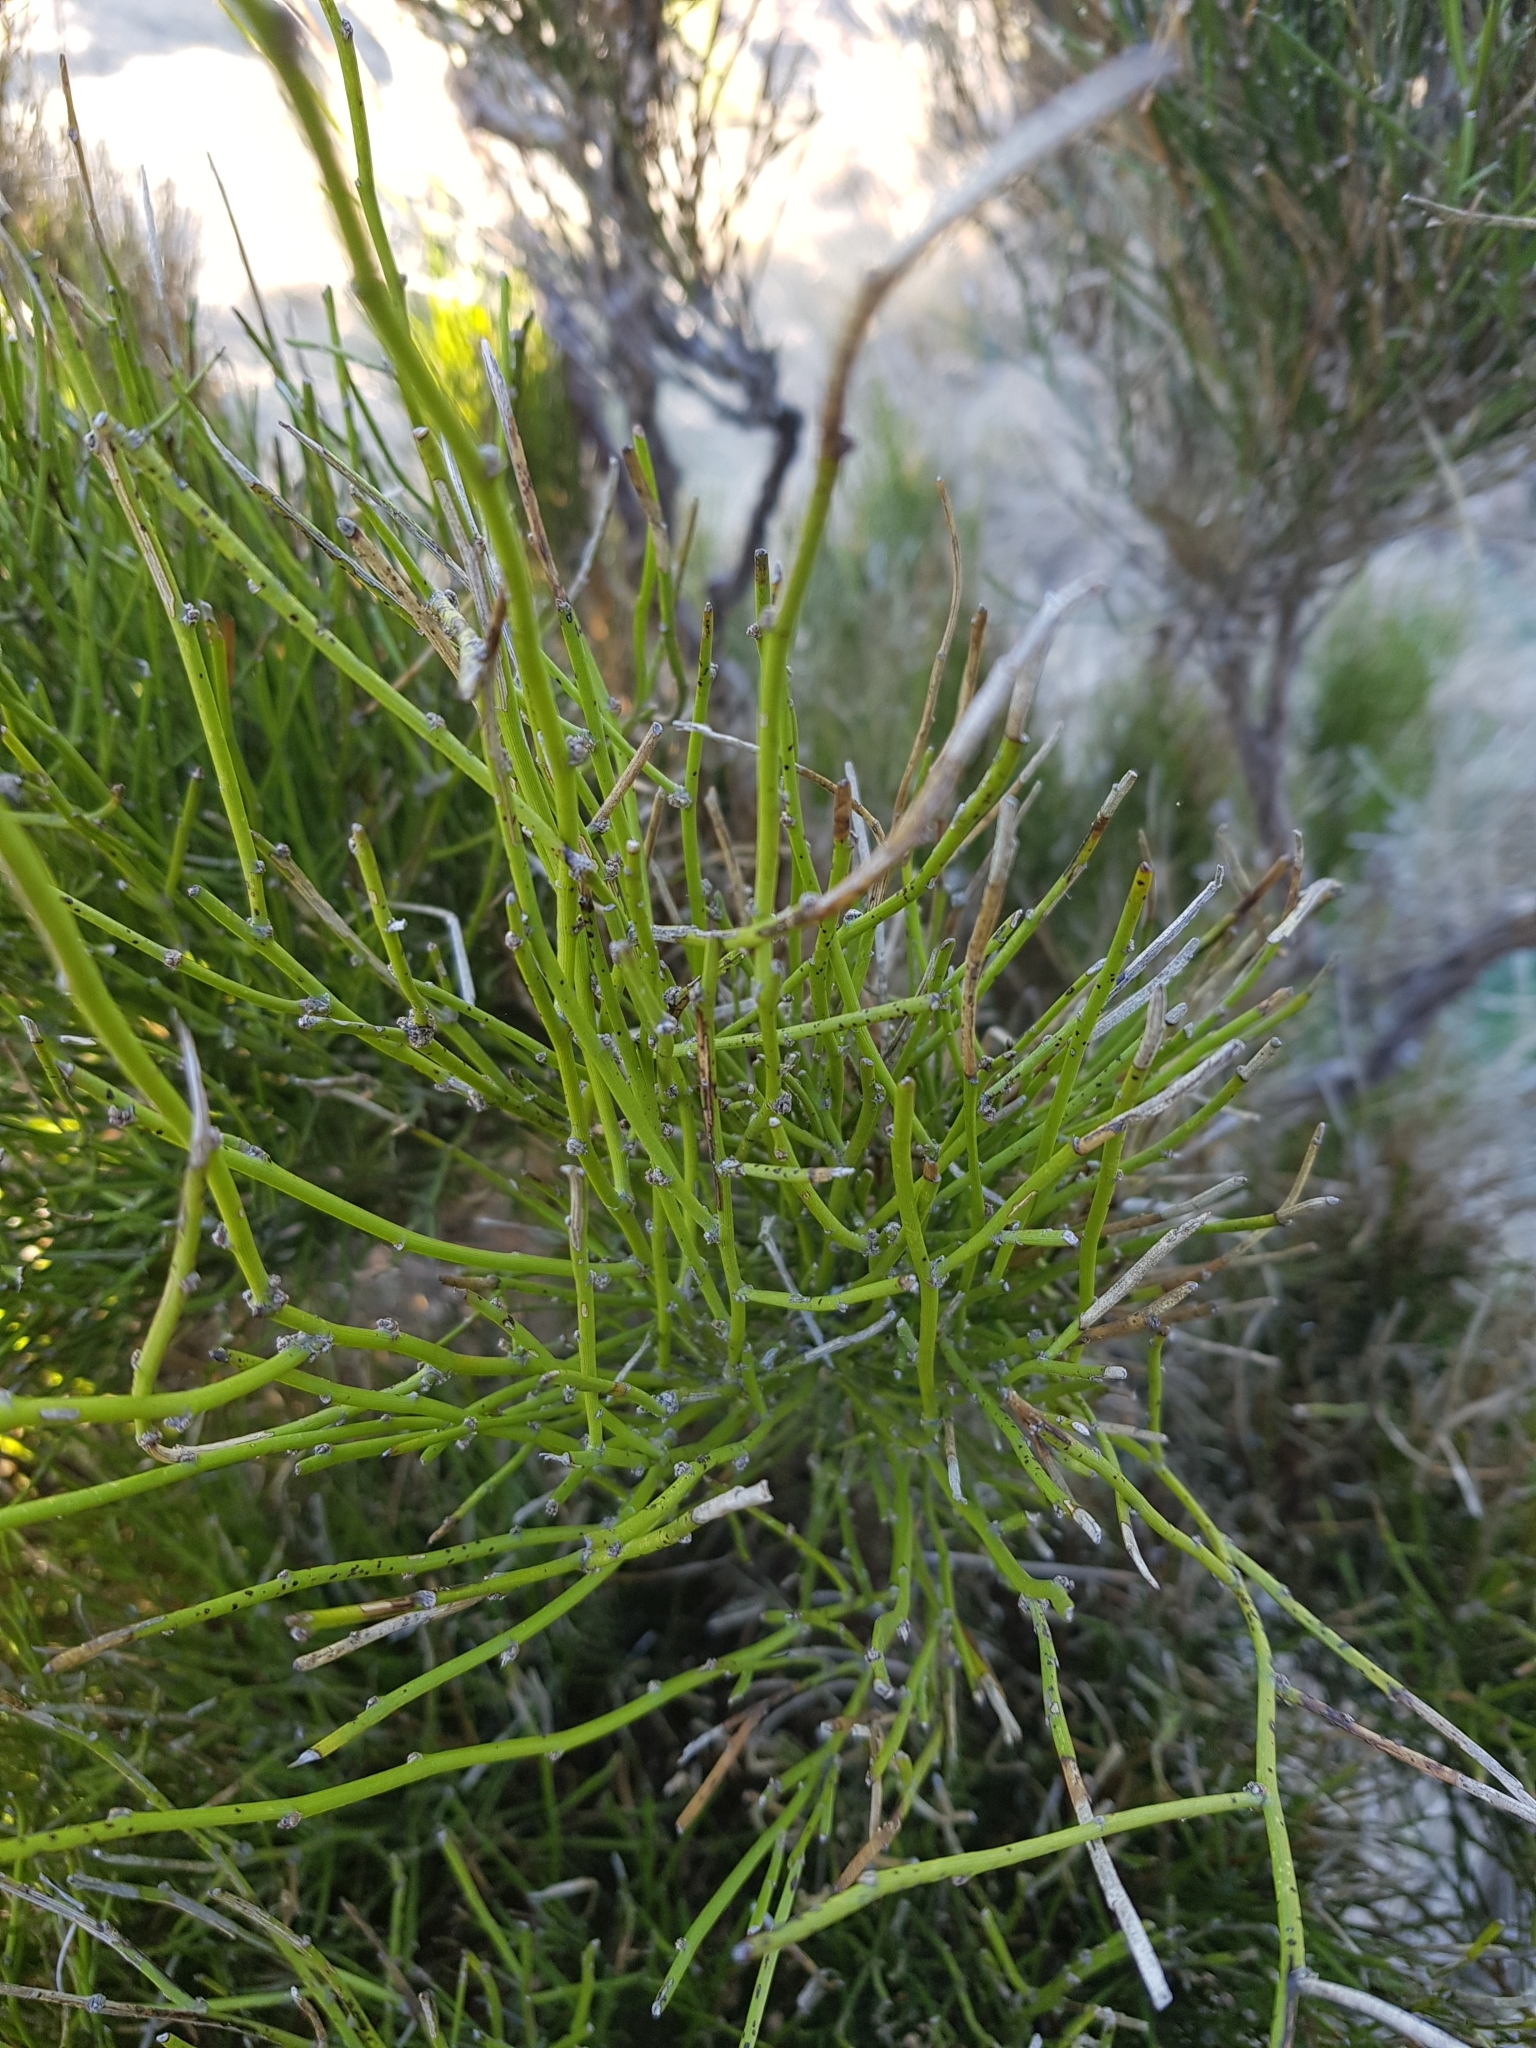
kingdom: Plantae
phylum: Tracheophyta
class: Magnoliopsida
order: Fabales
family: Fabaceae
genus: Carmichaelia
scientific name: Carmichaelia australis
